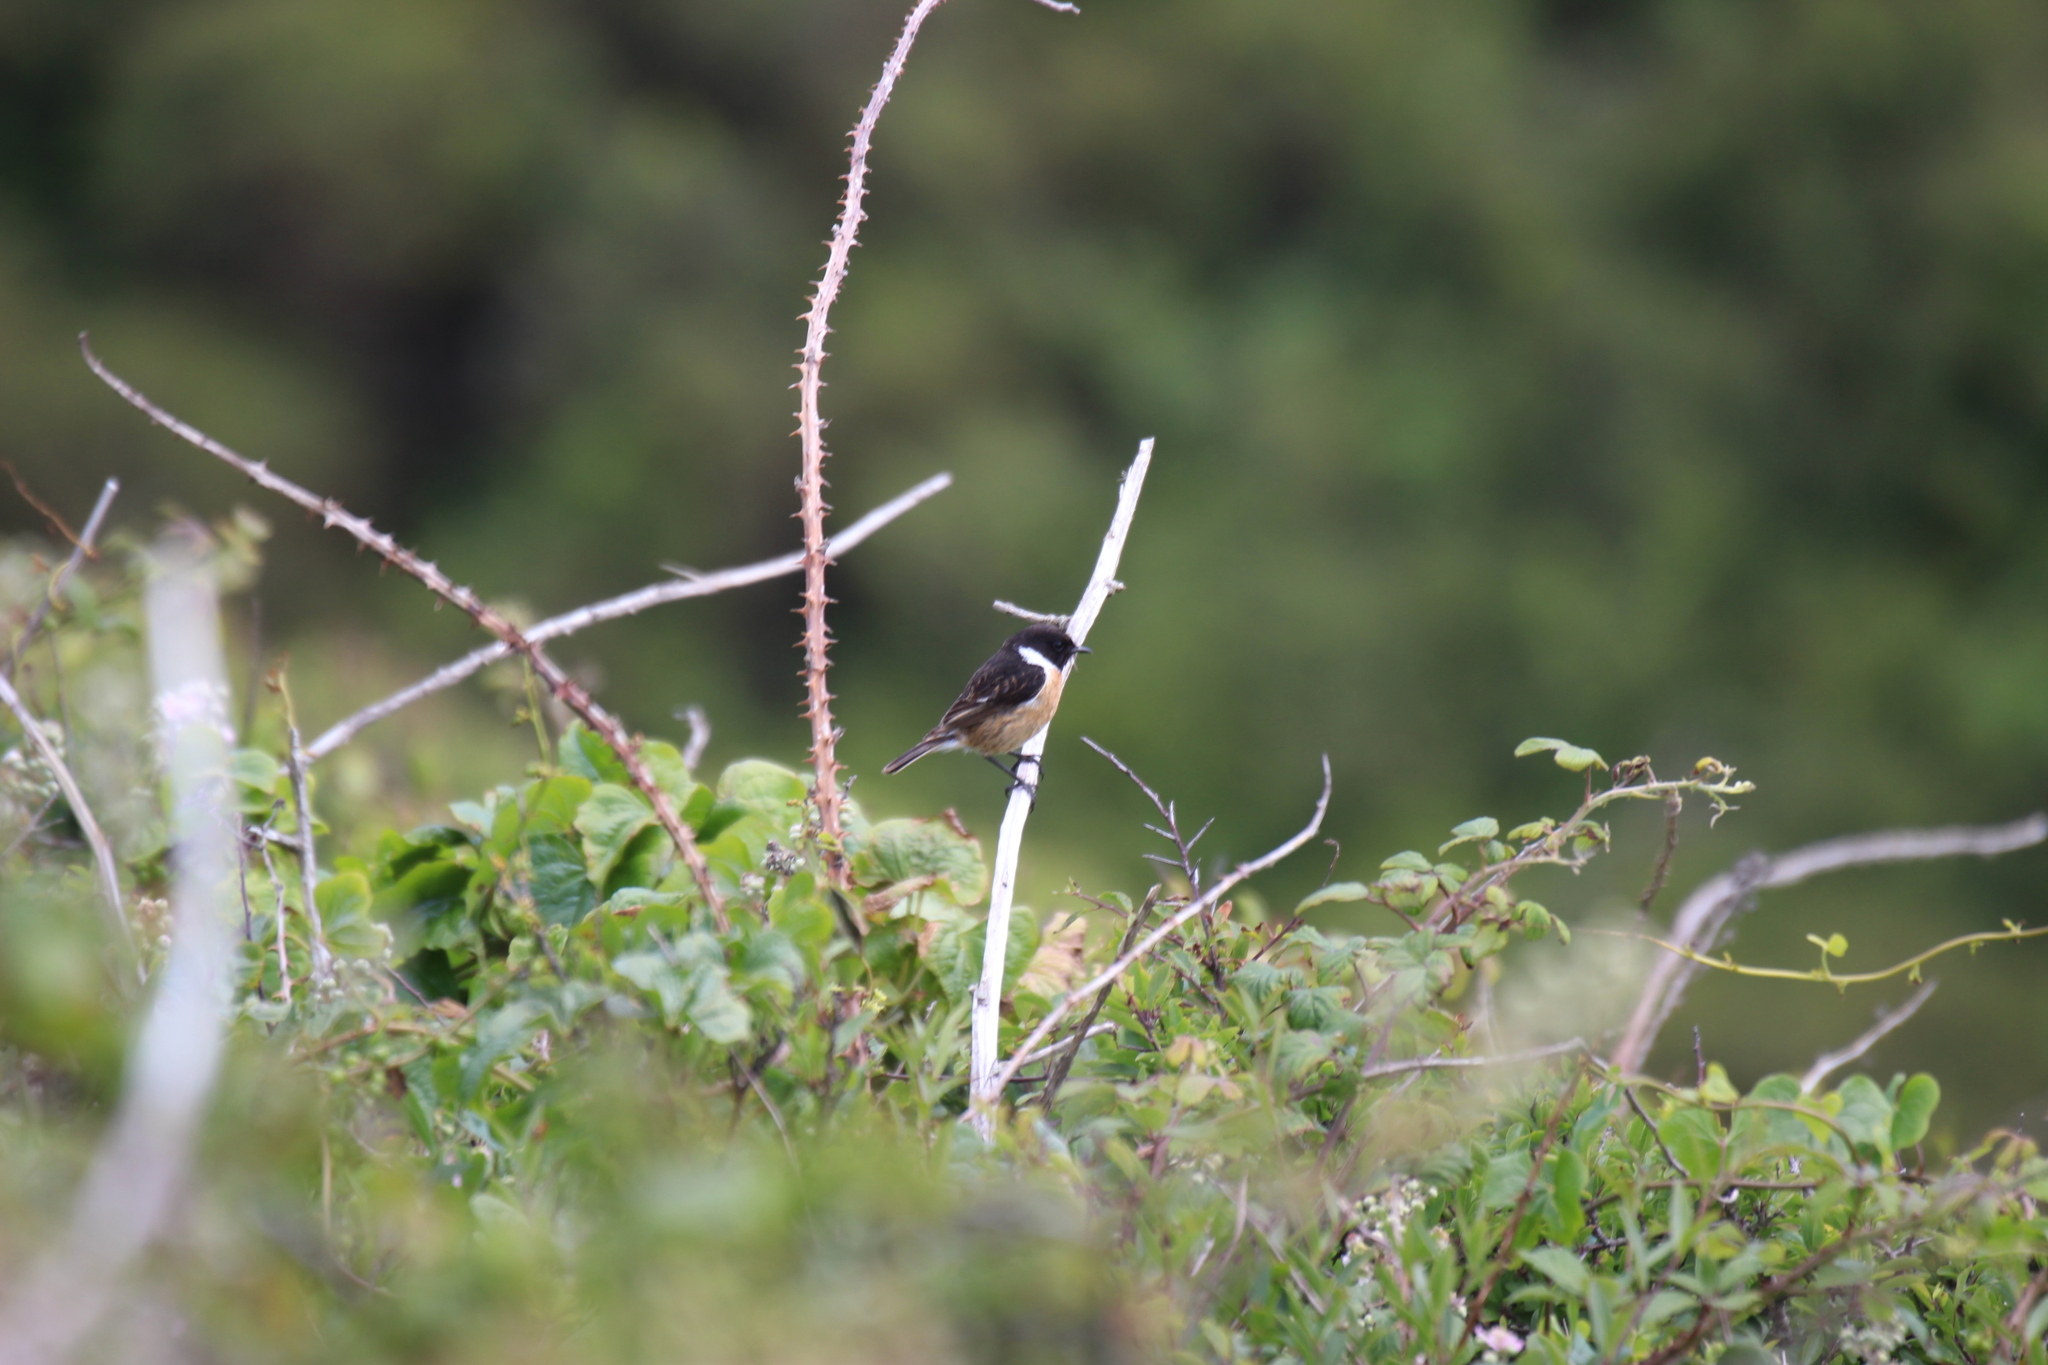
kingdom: Animalia
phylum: Chordata
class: Aves
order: Passeriformes
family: Muscicapidae
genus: Saxicola
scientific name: Saxicola rubicola
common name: European stonechat
